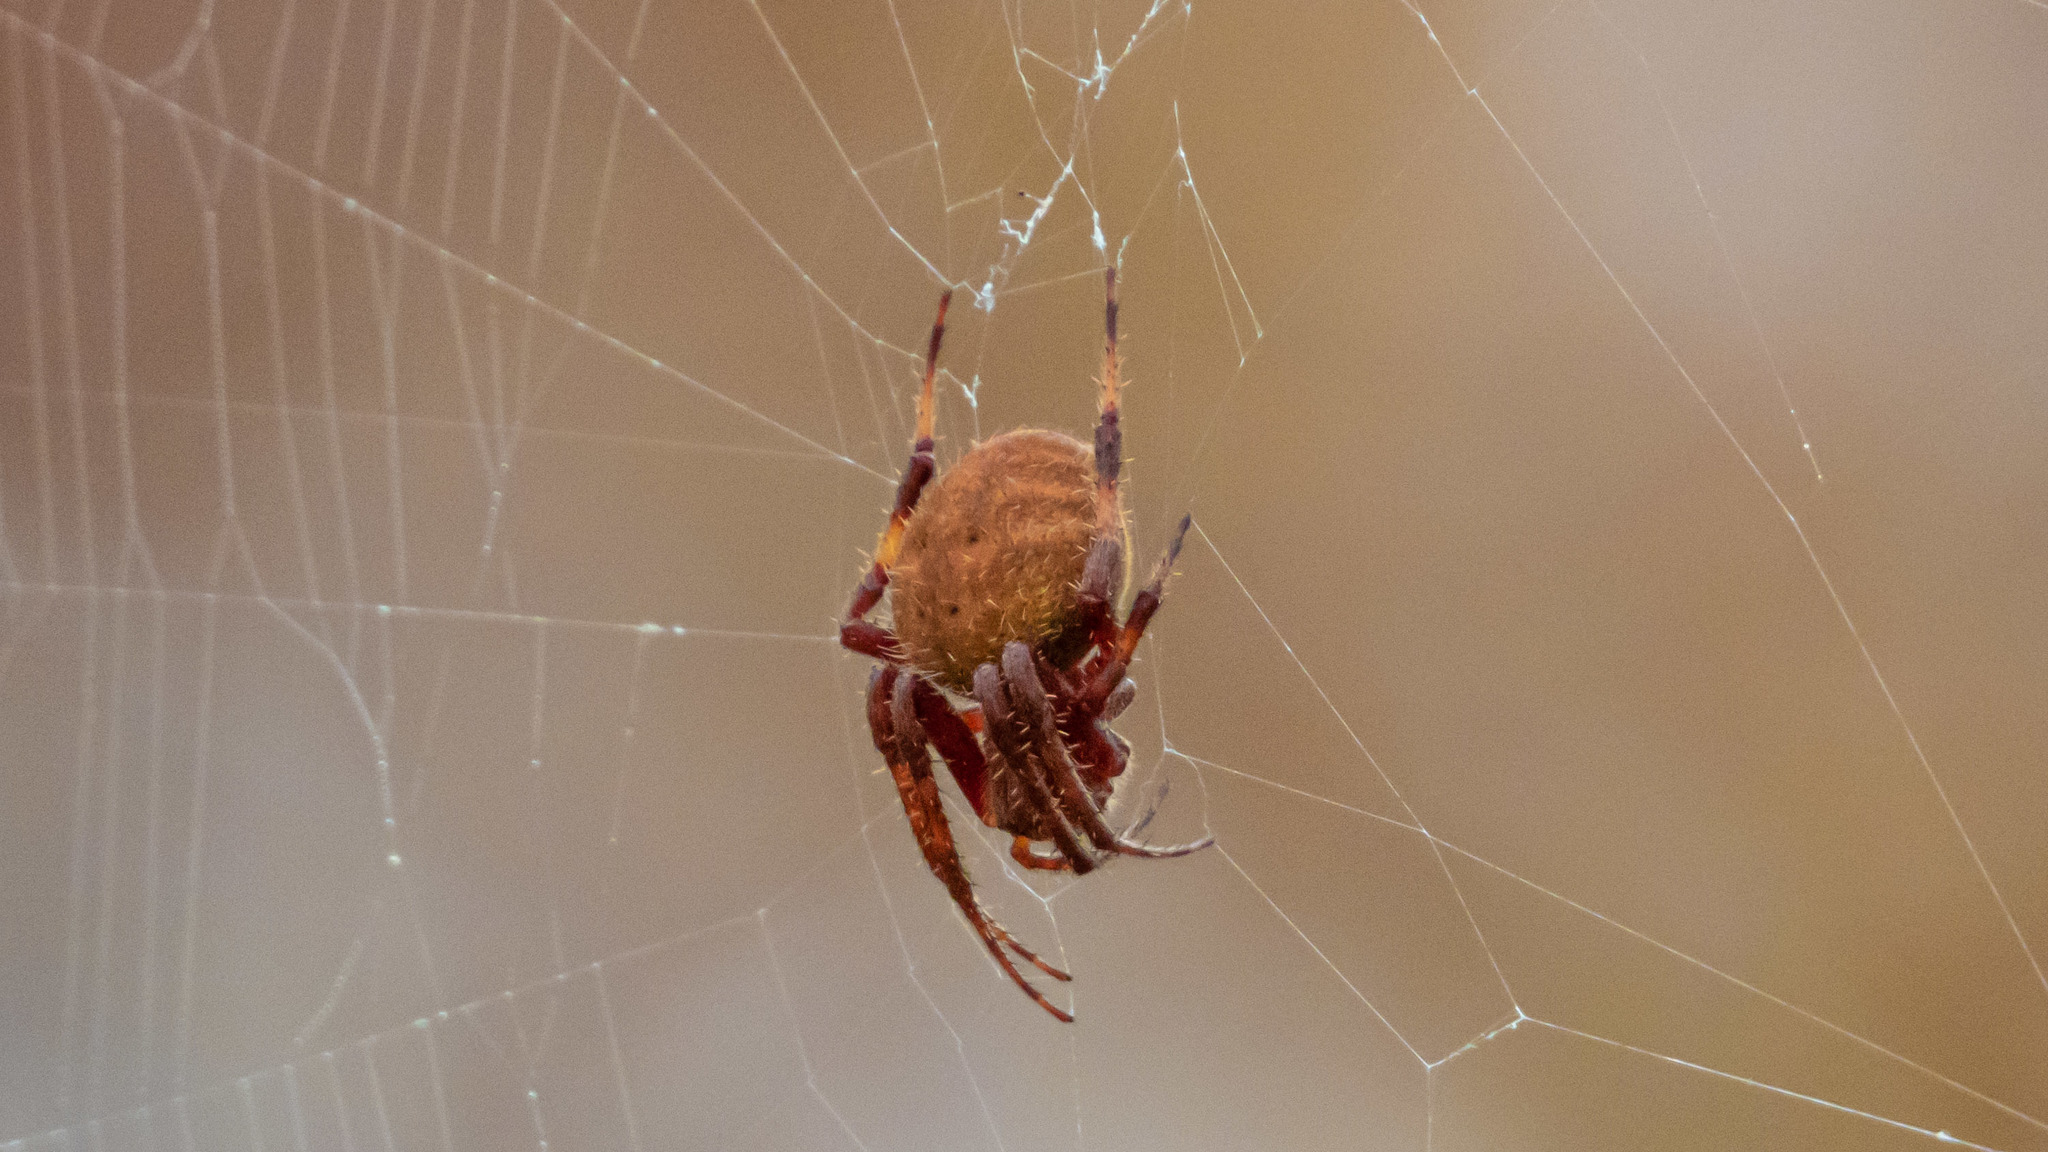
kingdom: Animalia
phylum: Arthropoda
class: Arachnida
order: Araneae
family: Araneidae
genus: Neoscona
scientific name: Neoscona crucifera
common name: Spotted orbweaver
